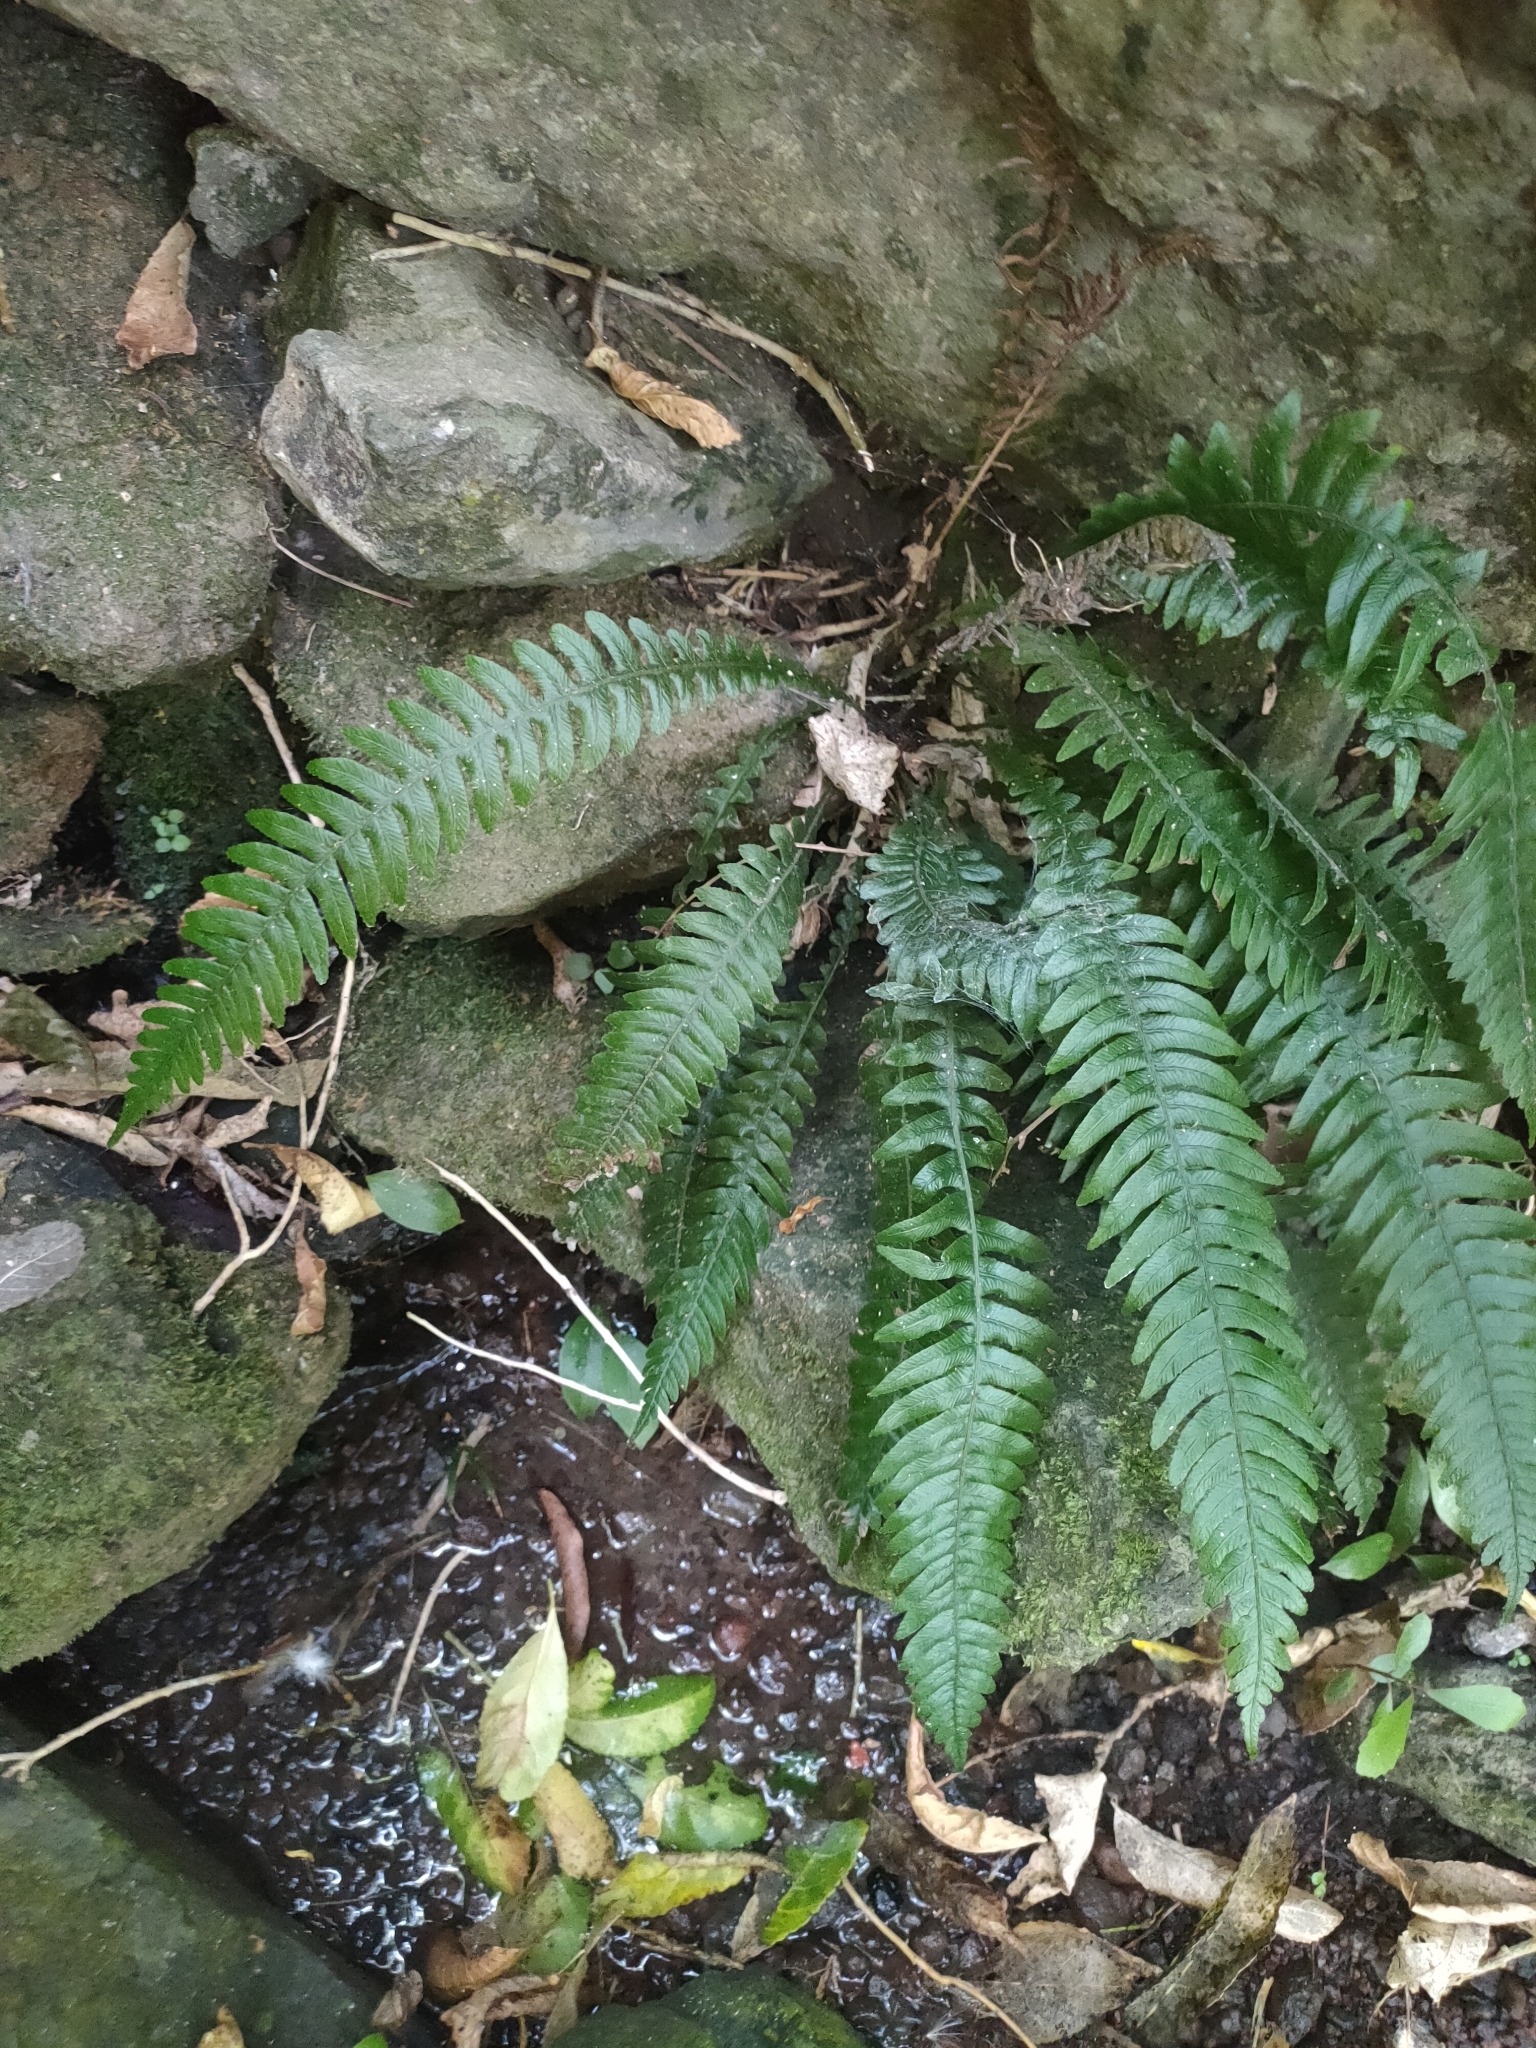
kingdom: Plantae
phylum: Tracheophyta
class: Polypodiopsida
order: Polypodiales
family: Blechnaceae
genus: Austroblechnum
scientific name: Austroblechnum lanceolatum
